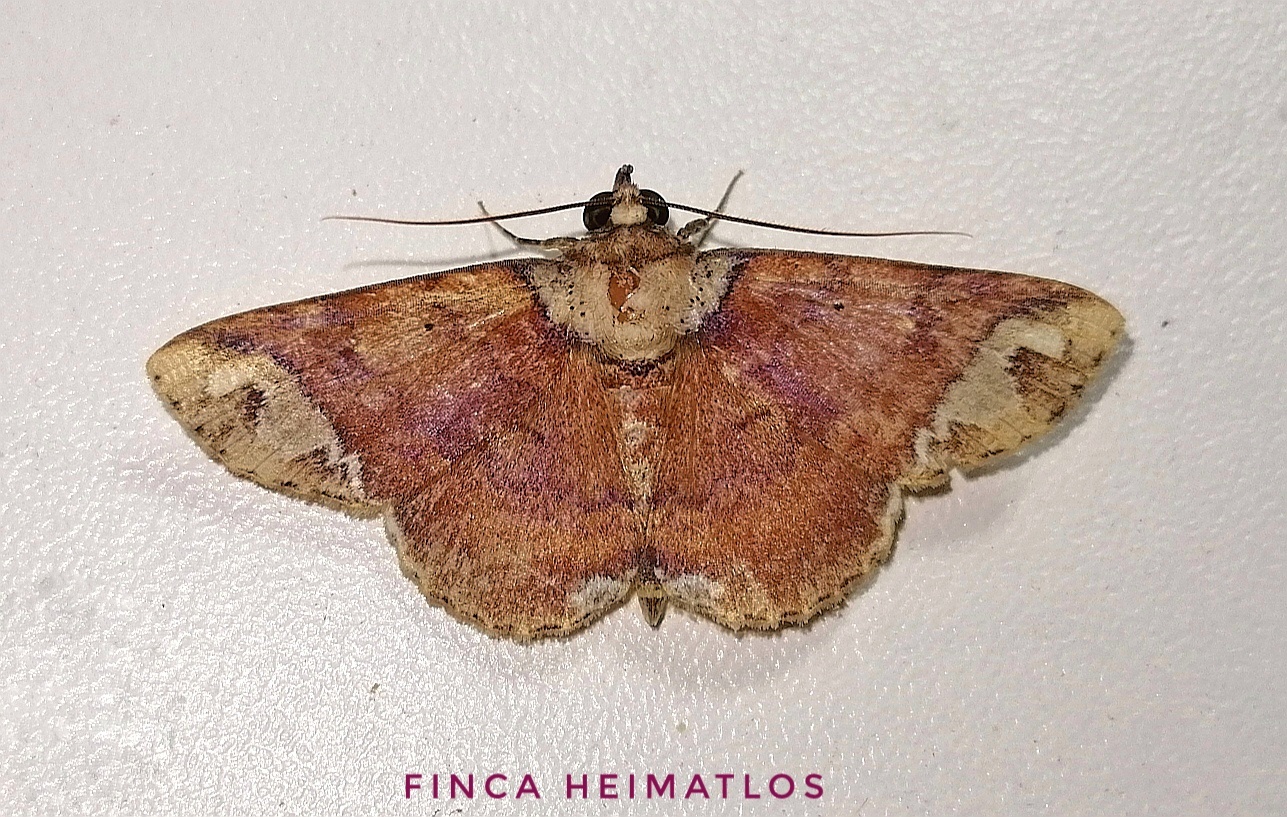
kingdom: Animalia
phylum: Arthropoda
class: Insecta
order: Lepidoptera
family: Erebidae
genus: Antiblemma
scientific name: Antiblemma restricta
